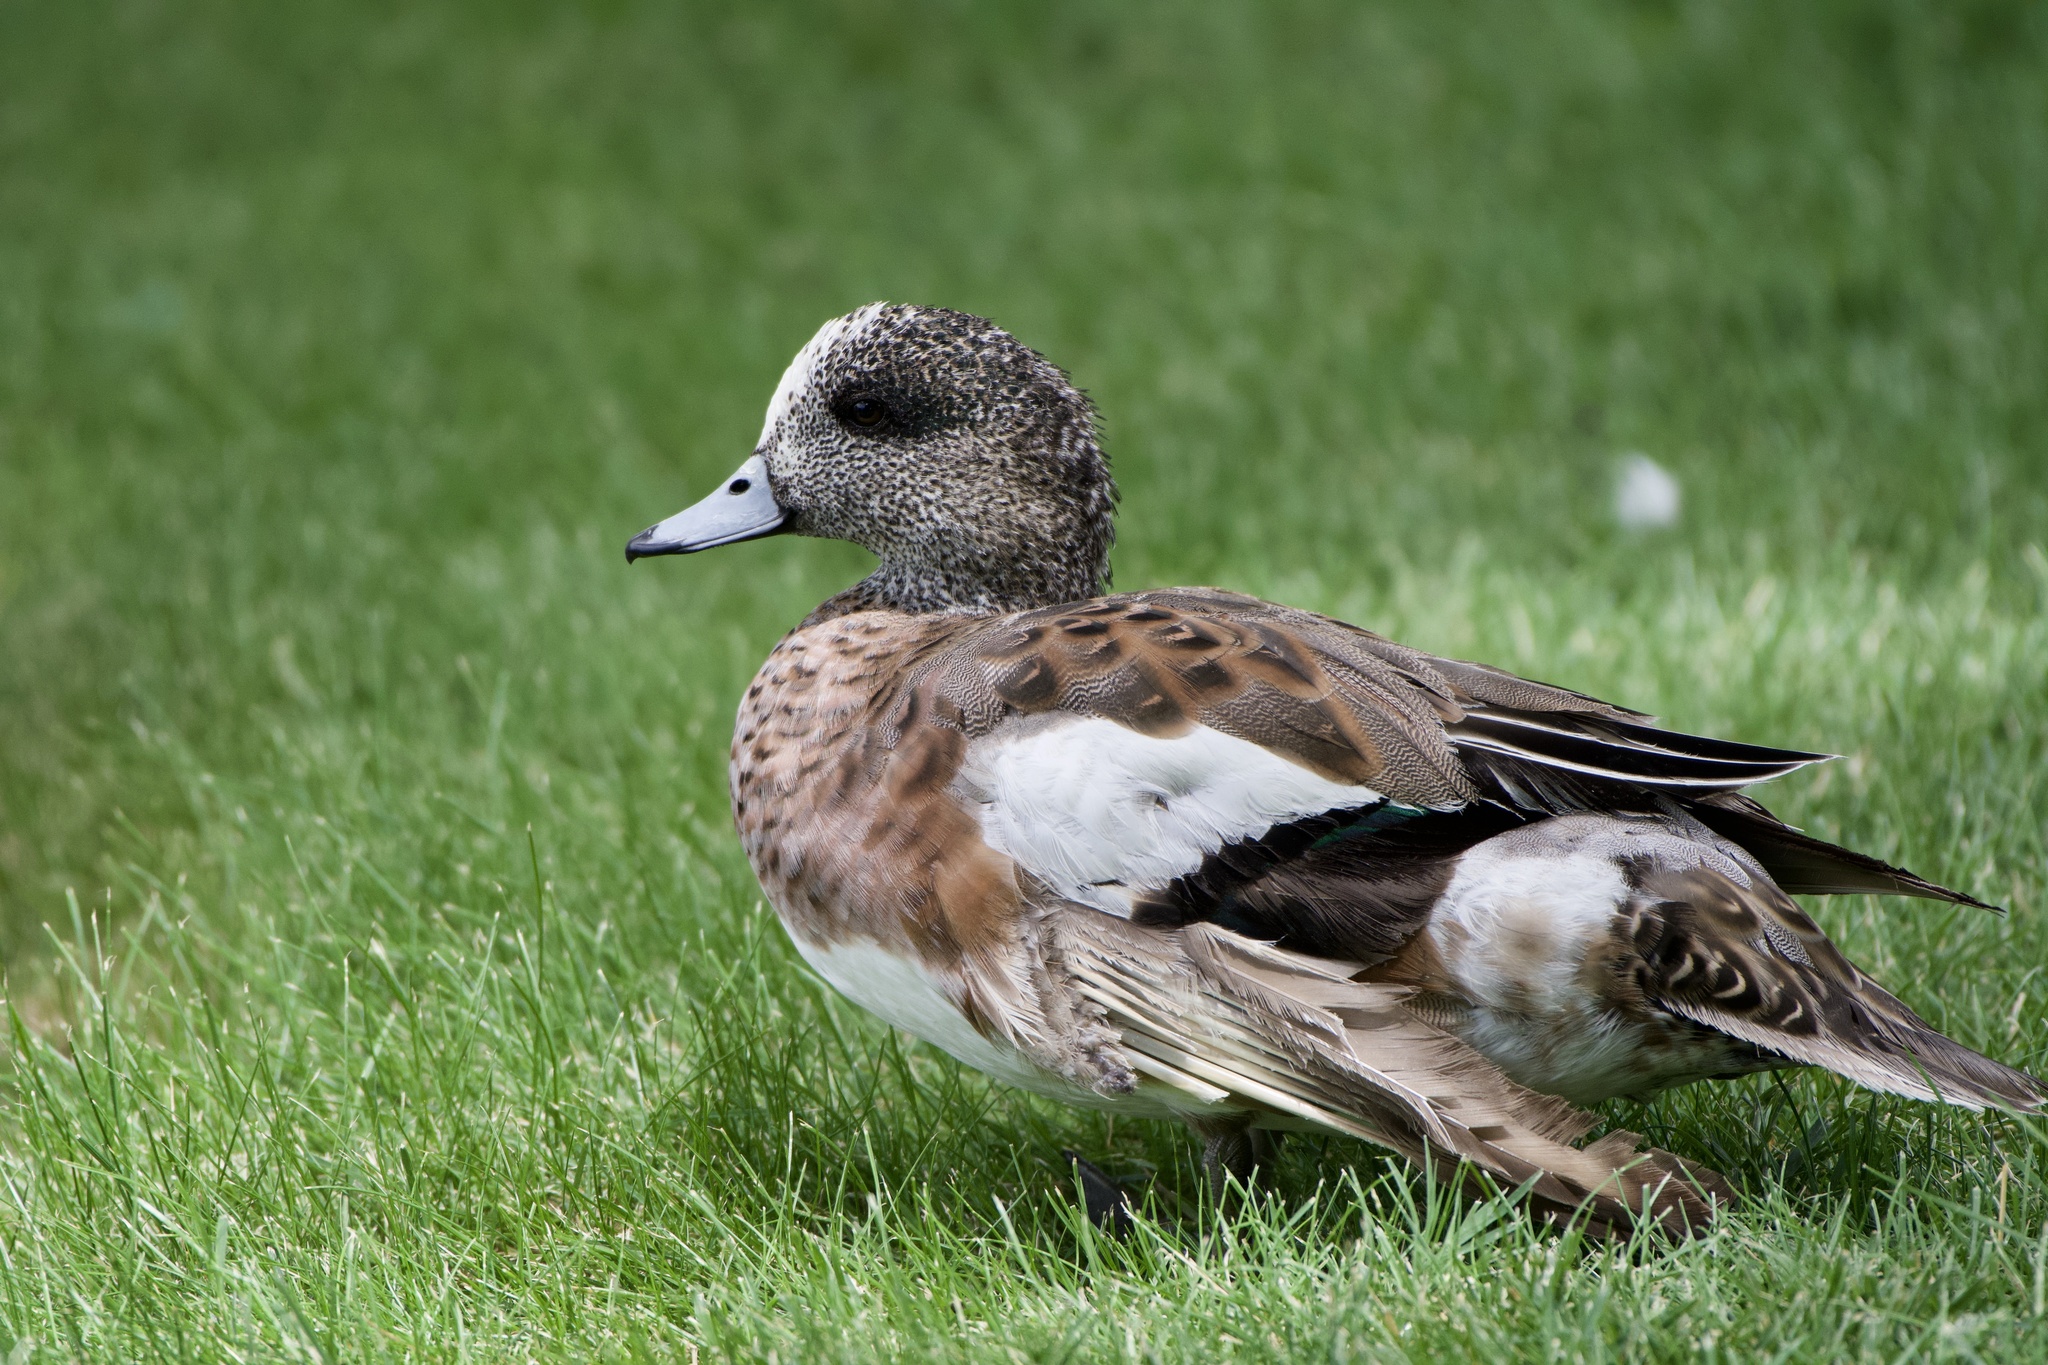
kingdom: Animalia
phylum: Chordata
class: Aves
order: Anseriformes
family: Anatidae
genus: Mareca
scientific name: Mareca americana
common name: American wigeon
